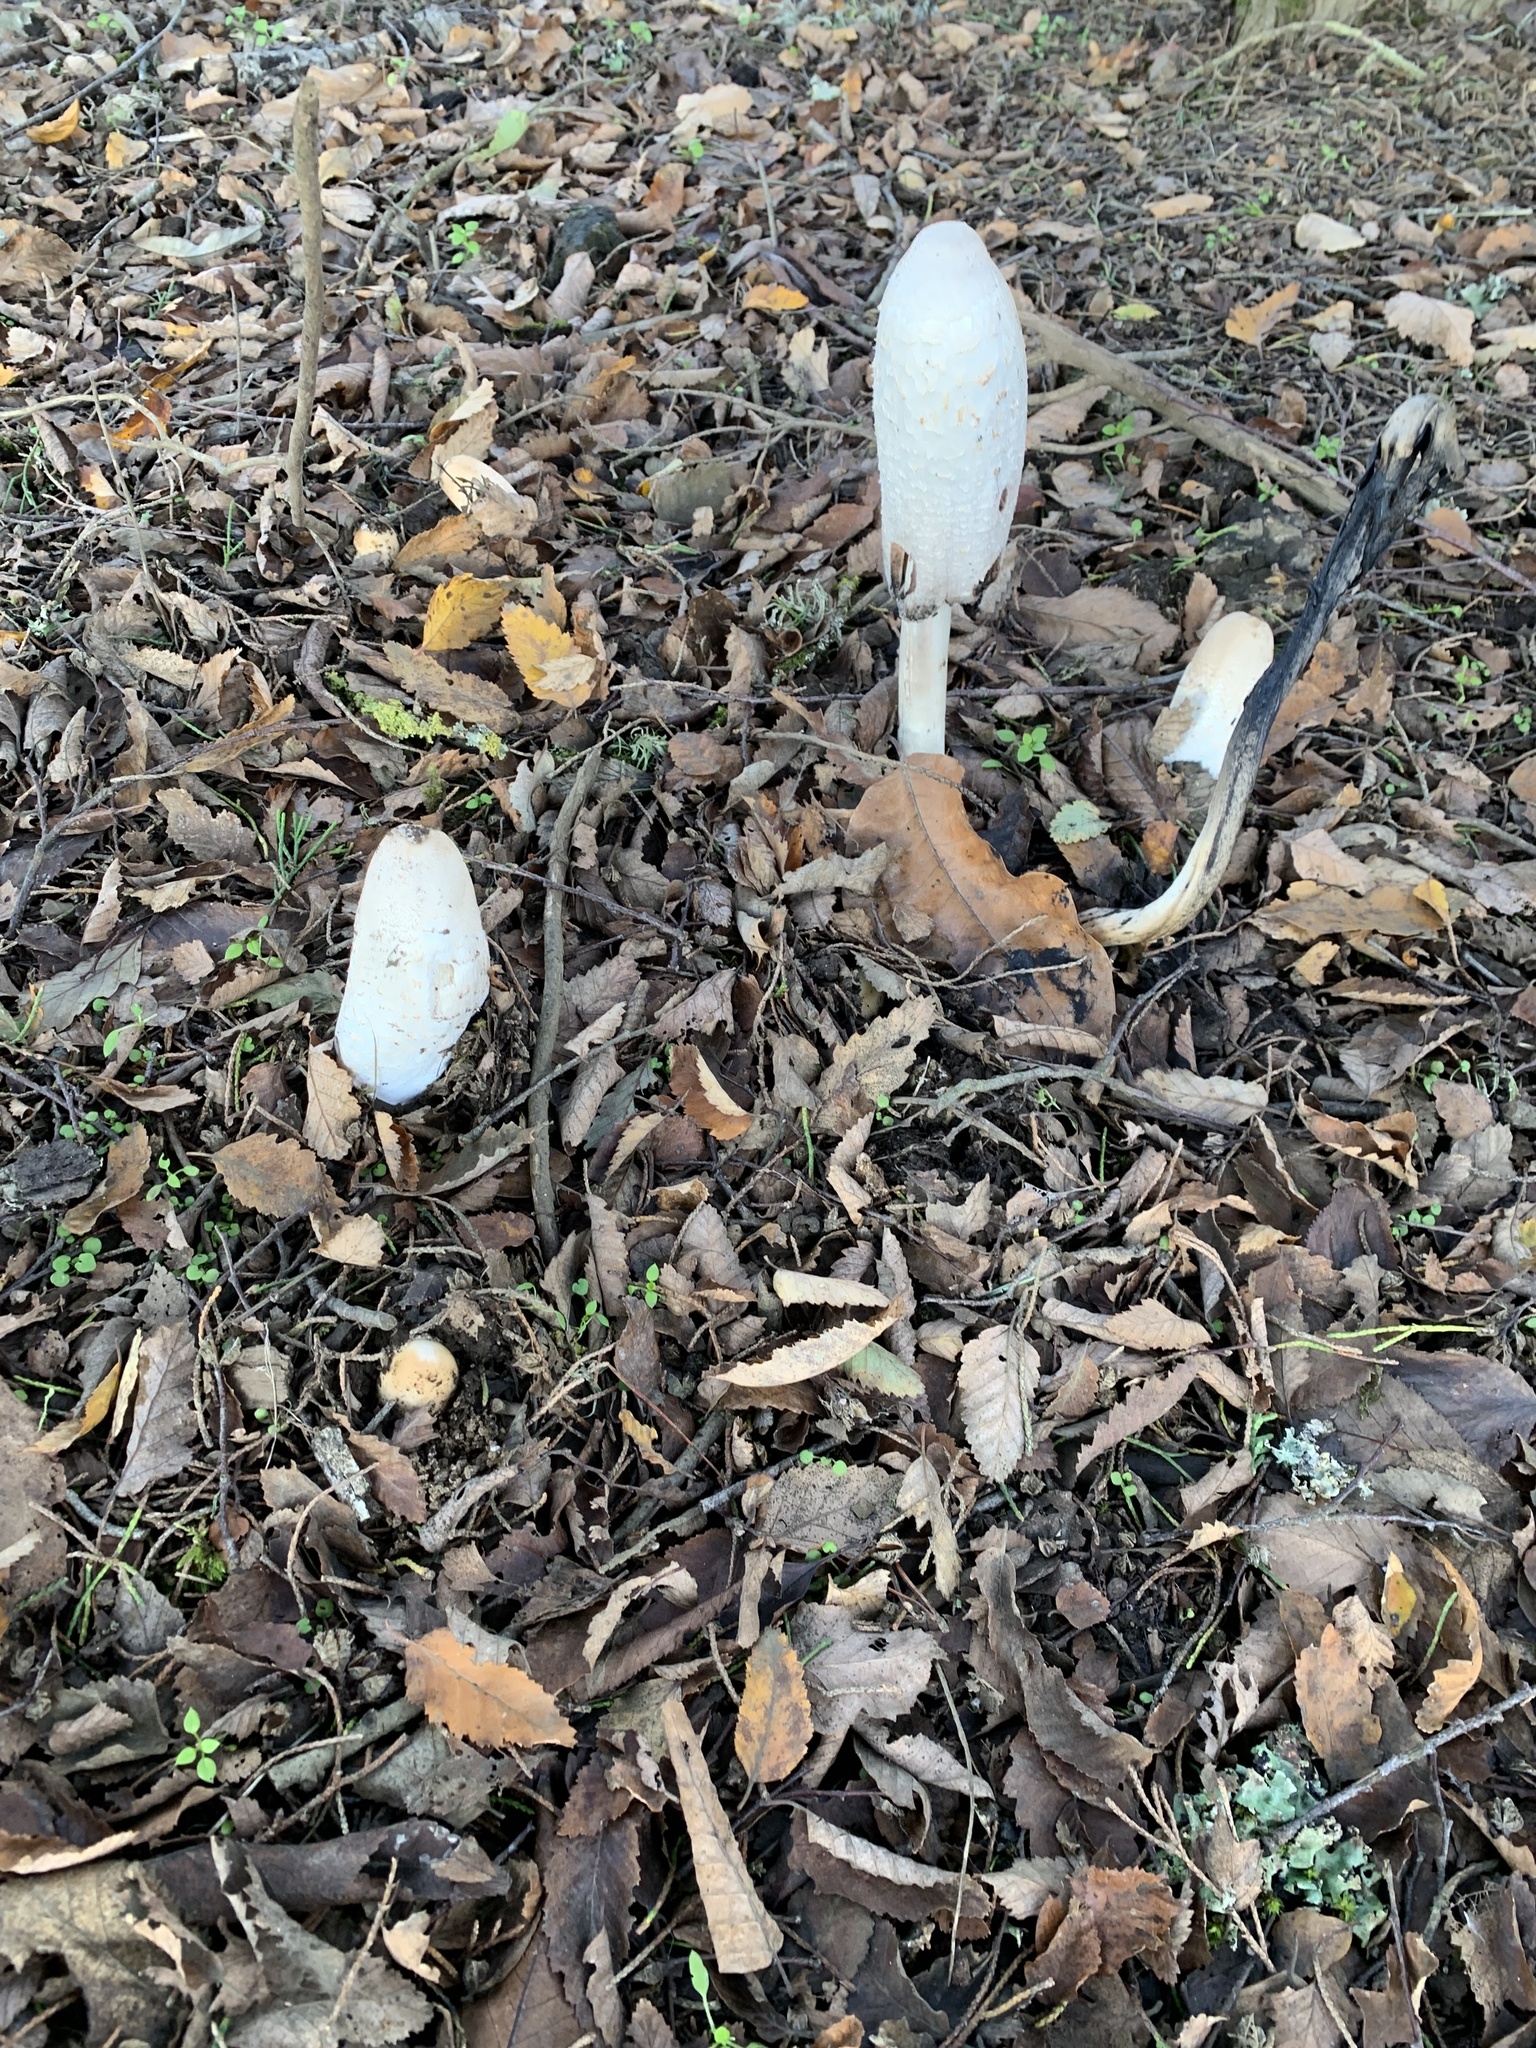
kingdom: Fungi
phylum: Basidiomycota
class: Agaricomycetes
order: Agaricales
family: Agaricaceae
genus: Coprinus
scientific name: Coprinus comatus
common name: Lawyer's wig
